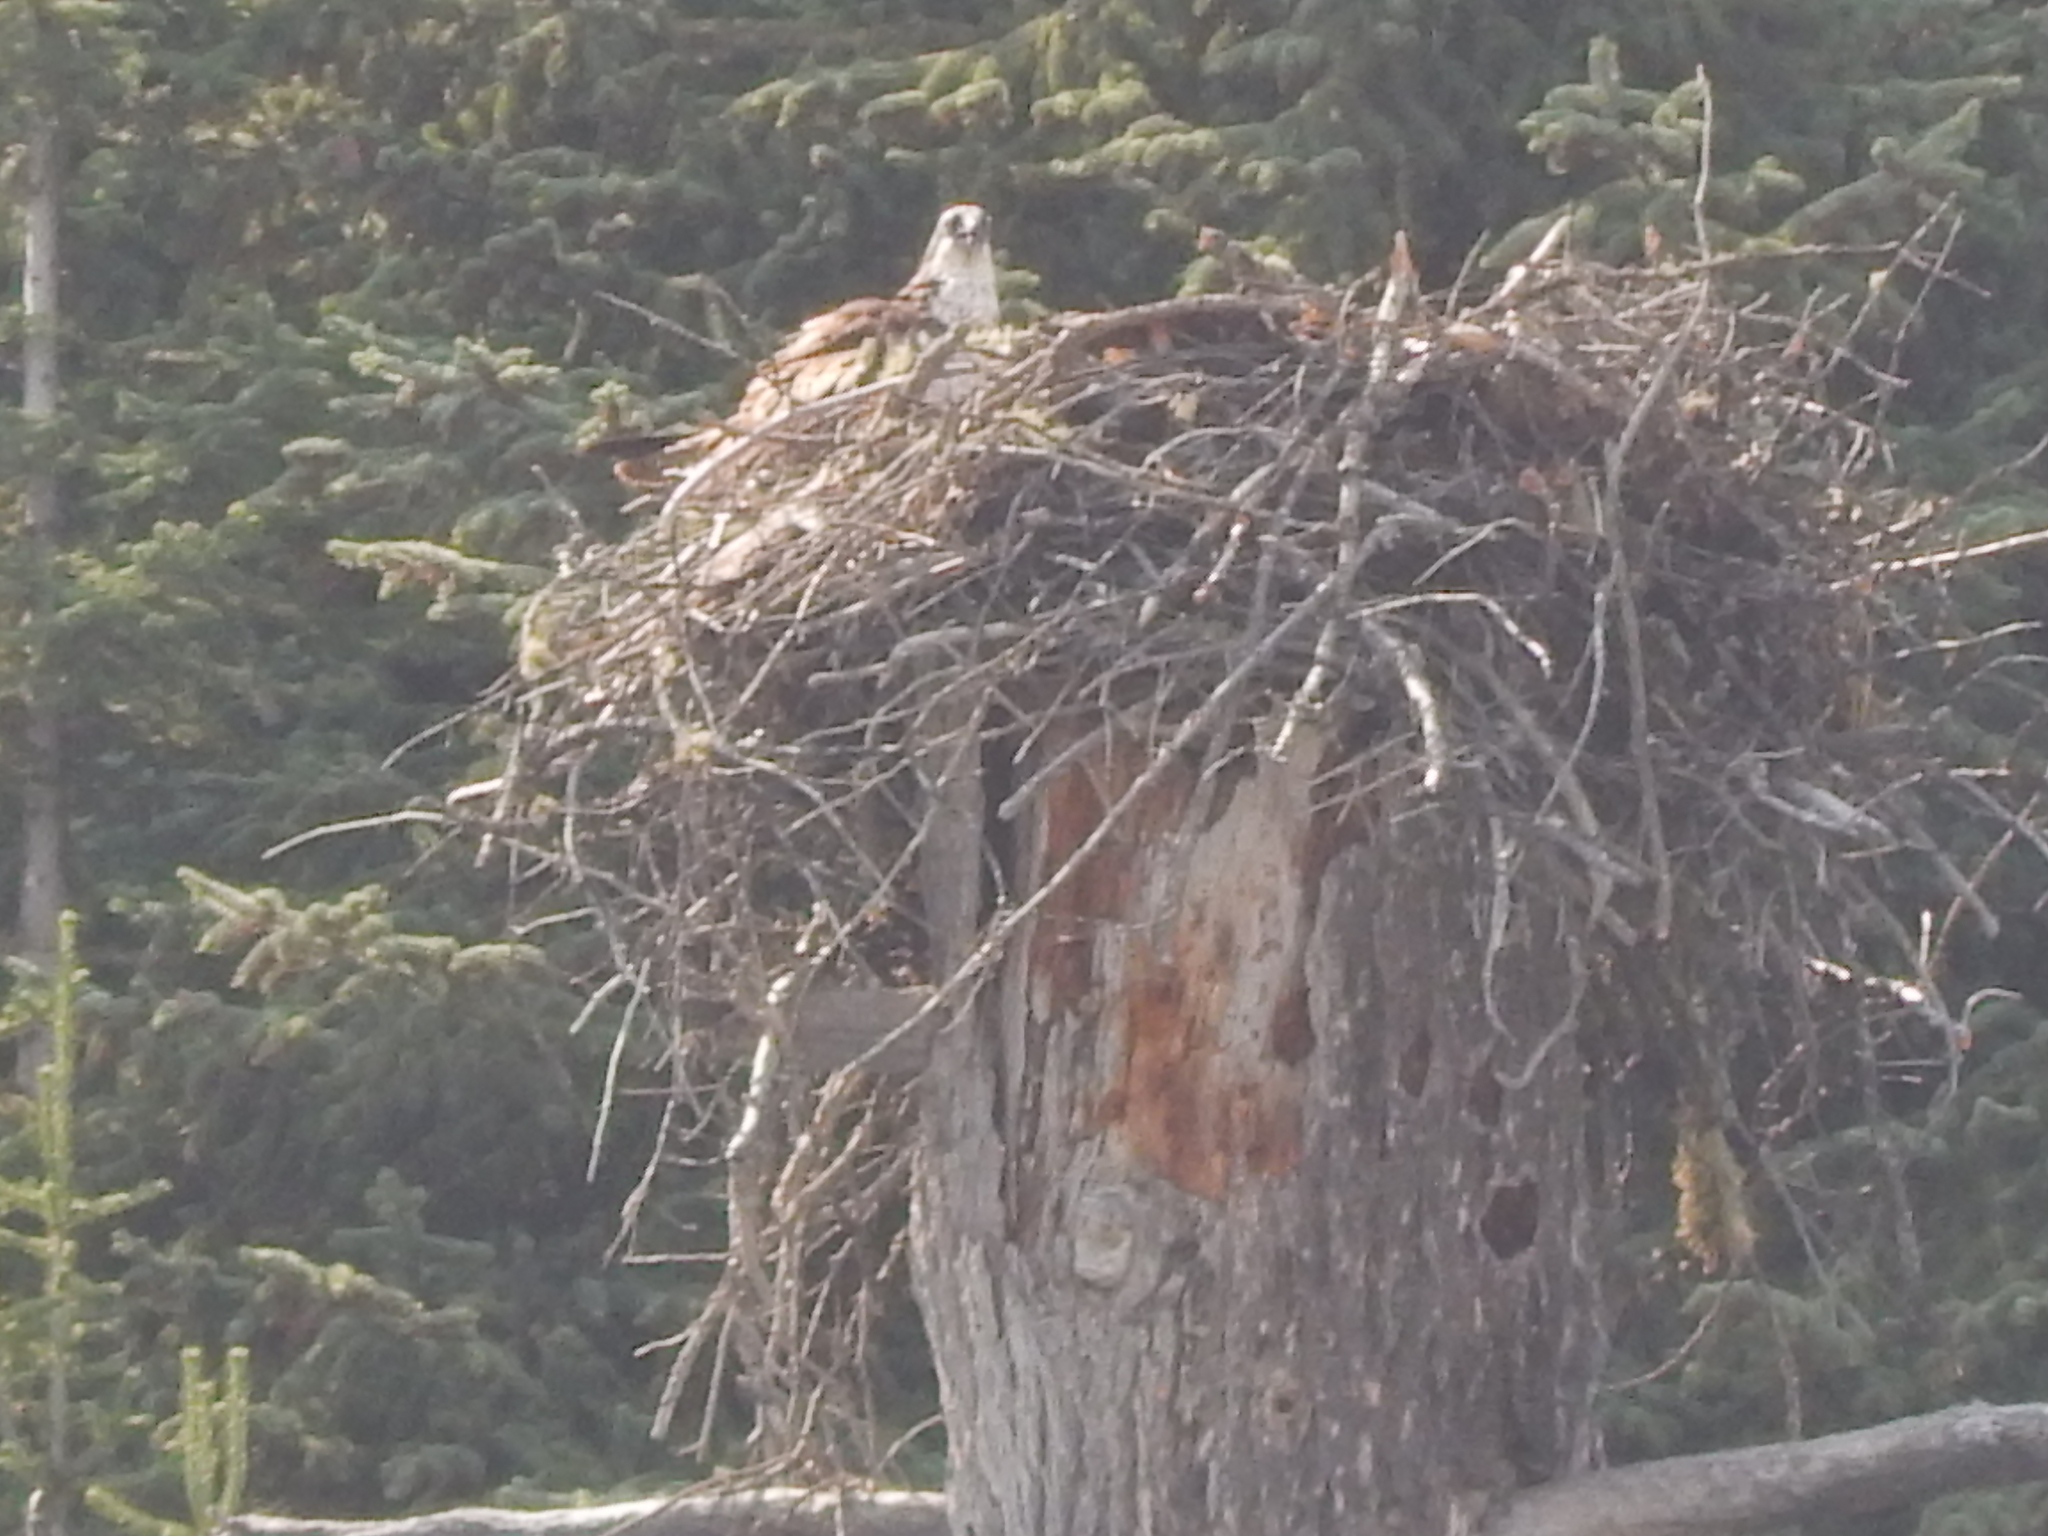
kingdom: Animalia
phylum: Chordata
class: Aves
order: Accipitriformes
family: Pandionidae
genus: Pandion
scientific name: Pandion haliaetus
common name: Osprey
